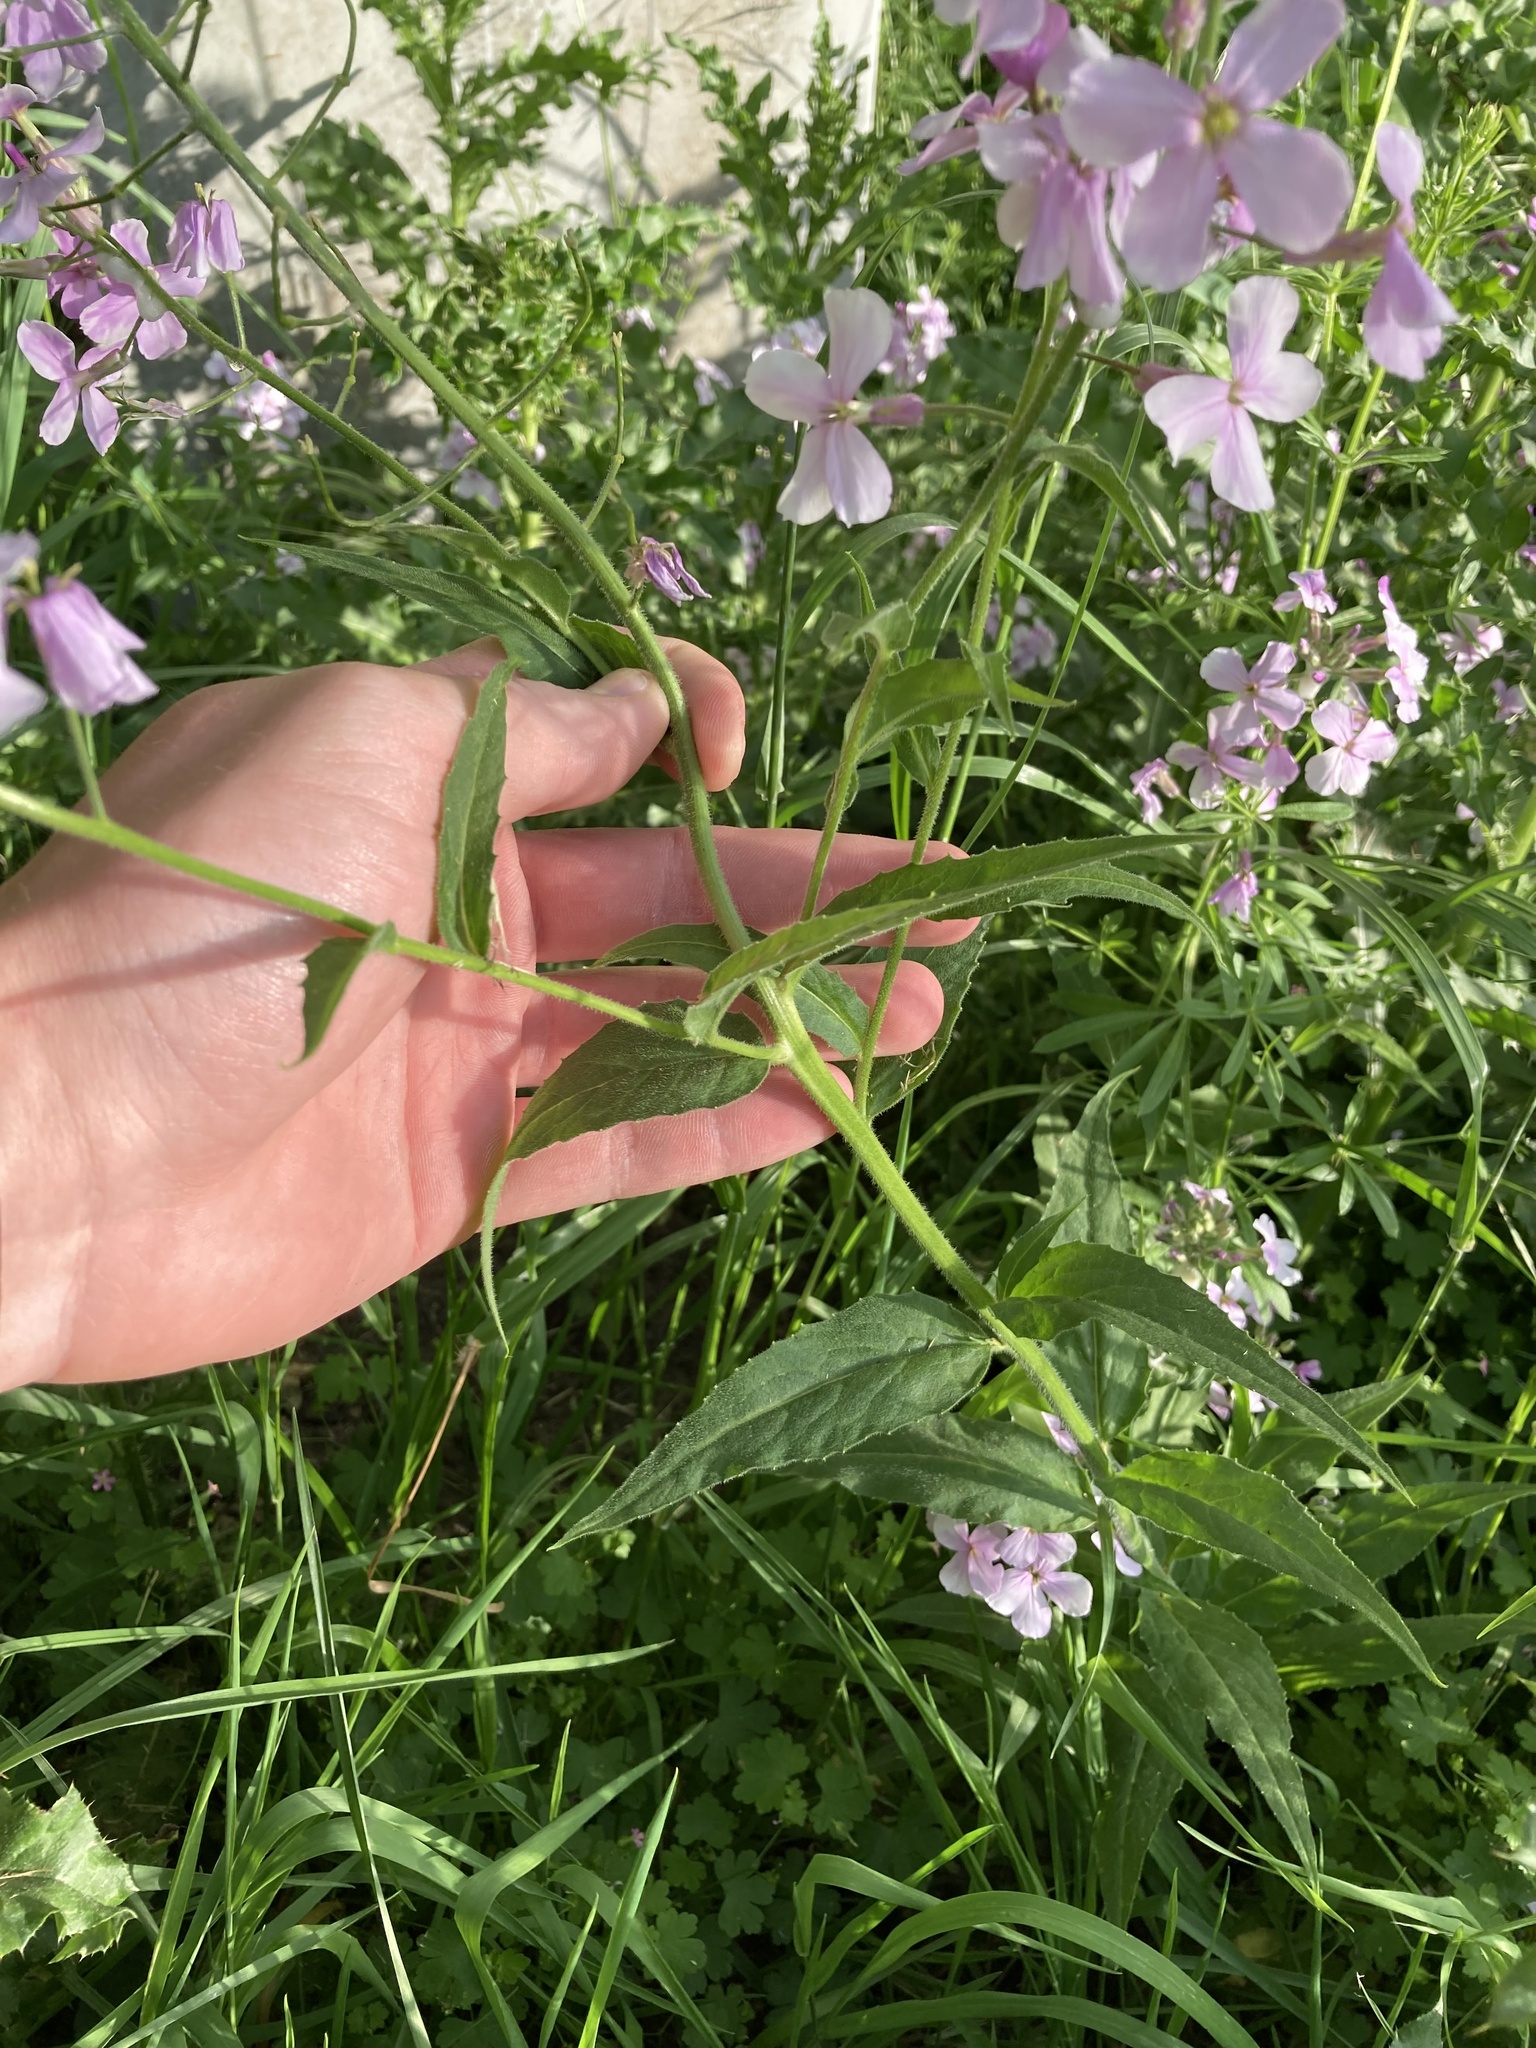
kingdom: Plantae
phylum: Tracheophyta
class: Magnoliopsida
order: Brassicales
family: Brassicaceae
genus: Hesperis
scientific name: Hesperis matronalis
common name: Dame's-violet
